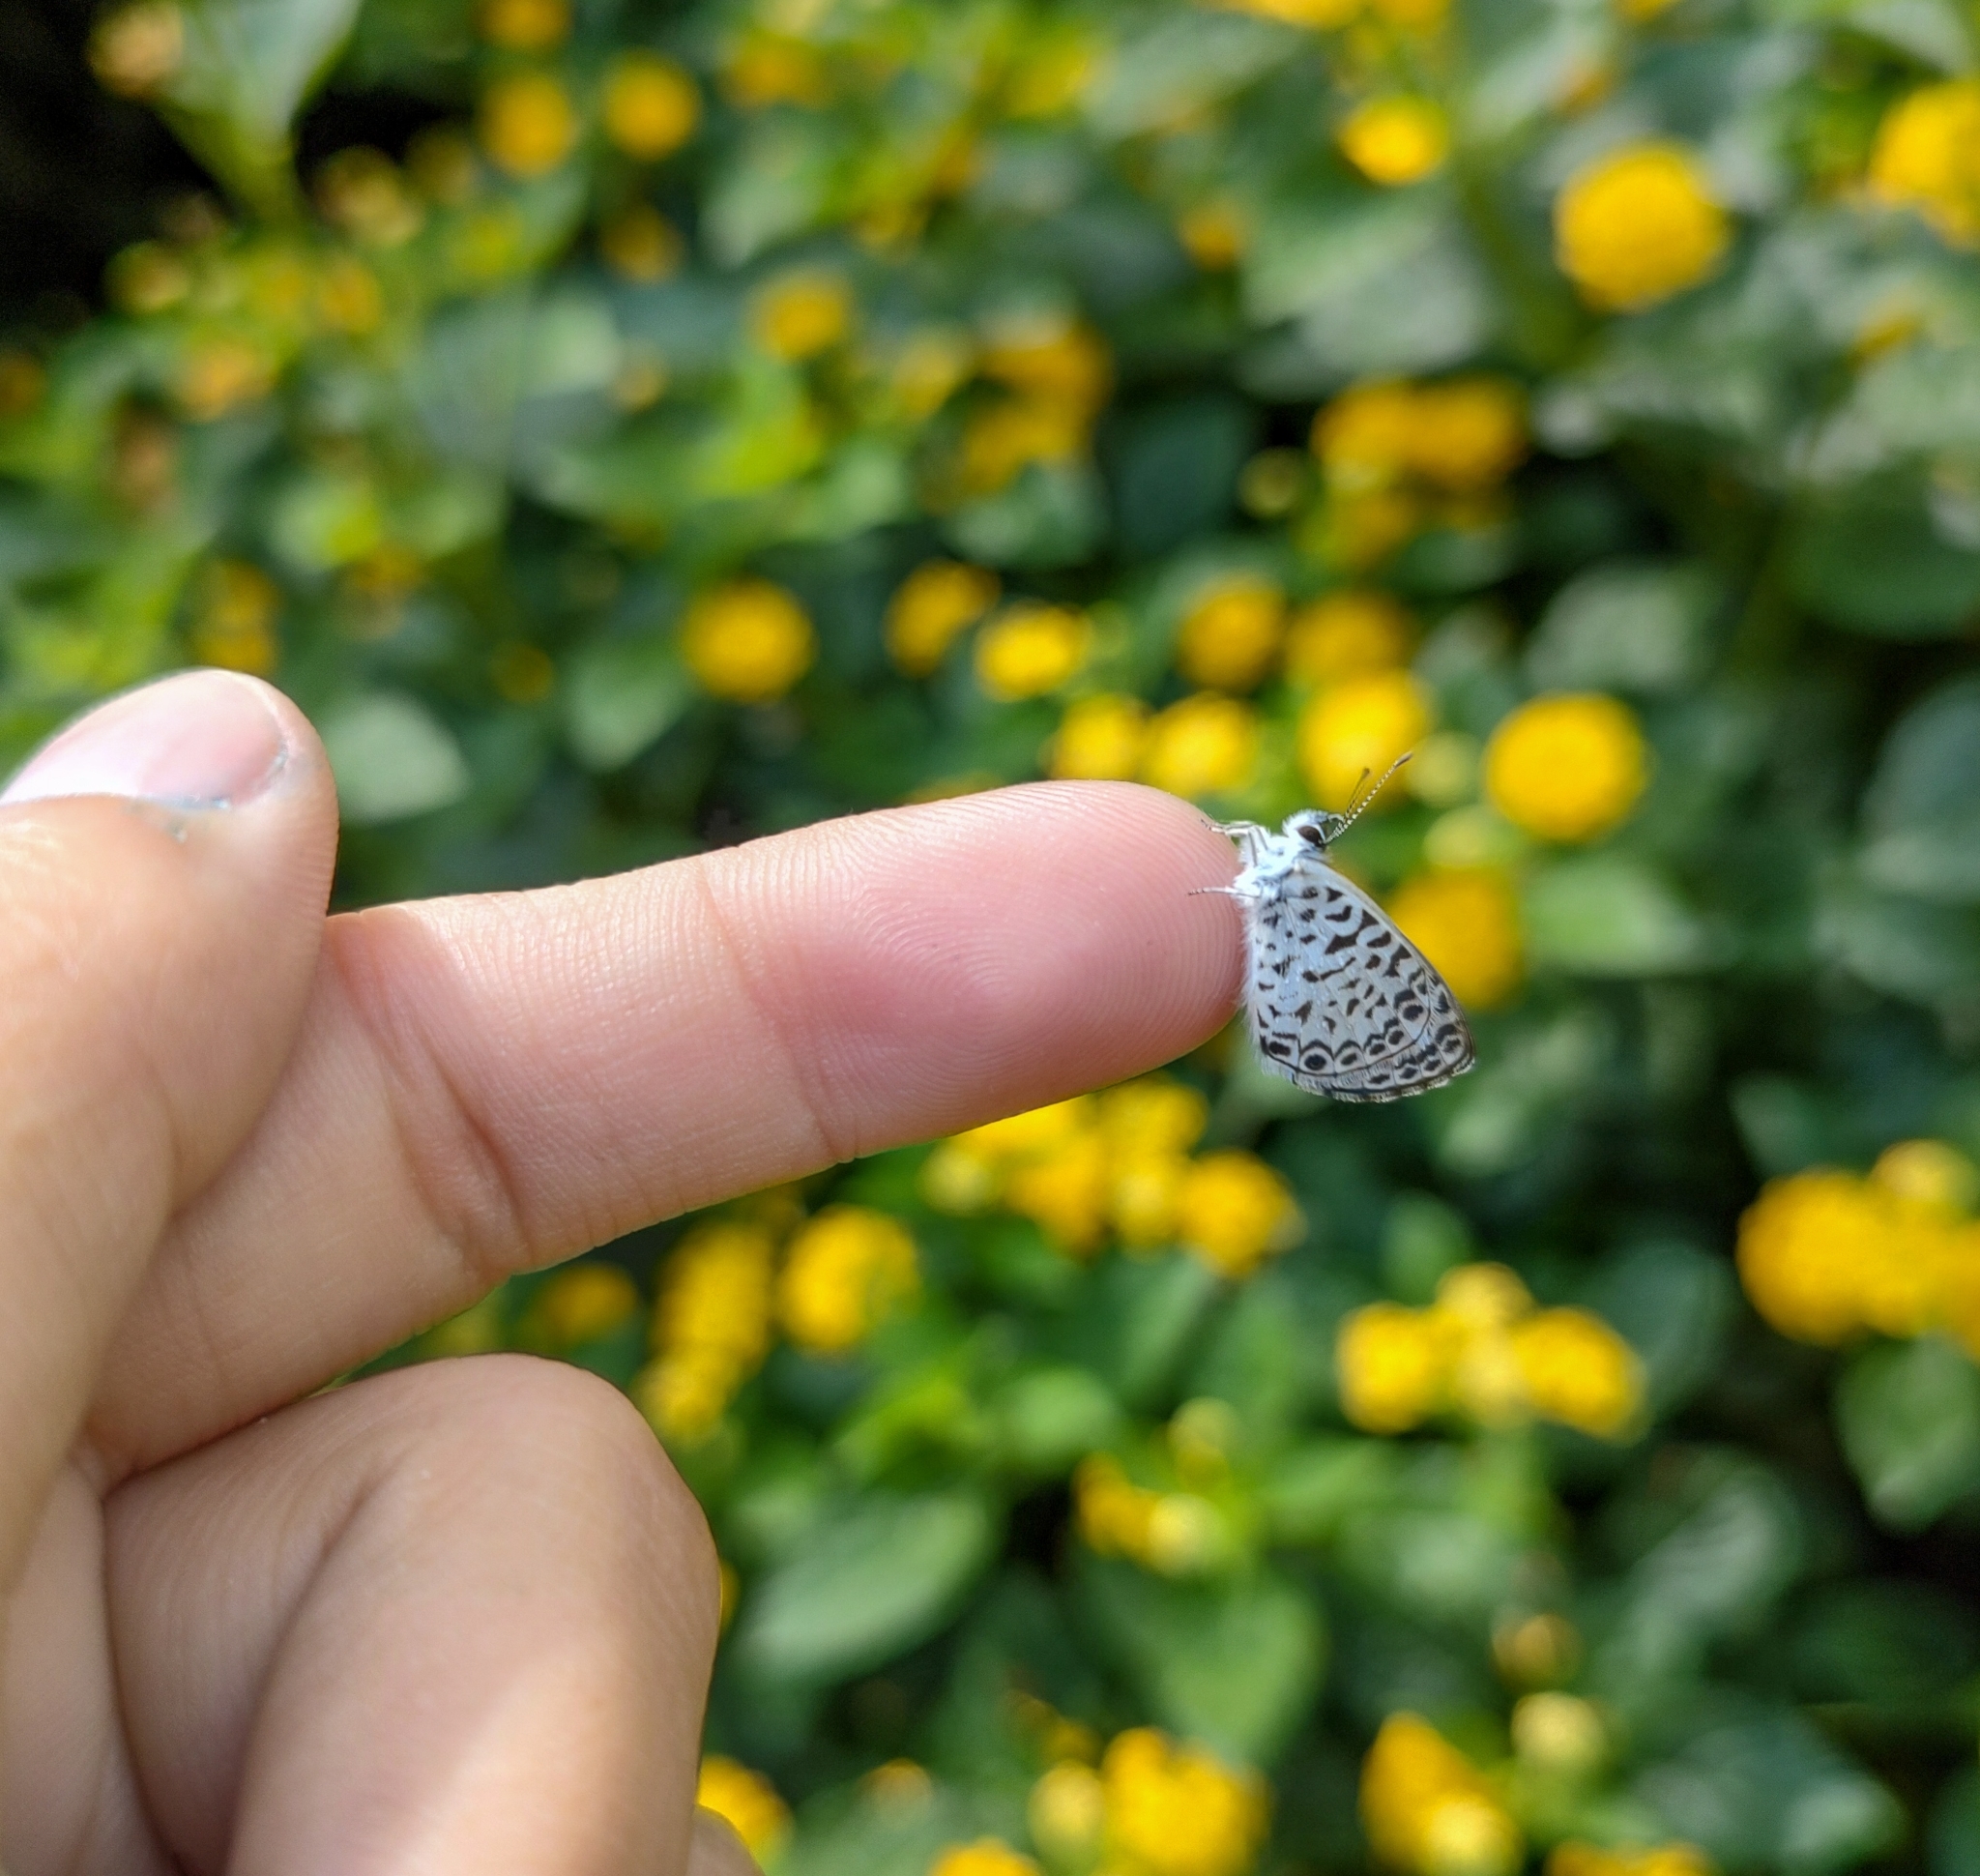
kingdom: Animalia
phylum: Arthropoda
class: Insecta
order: Lepidoptera
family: Lycaenidae
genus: Leptotes
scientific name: Leptotes cassius
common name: Cassius blue
